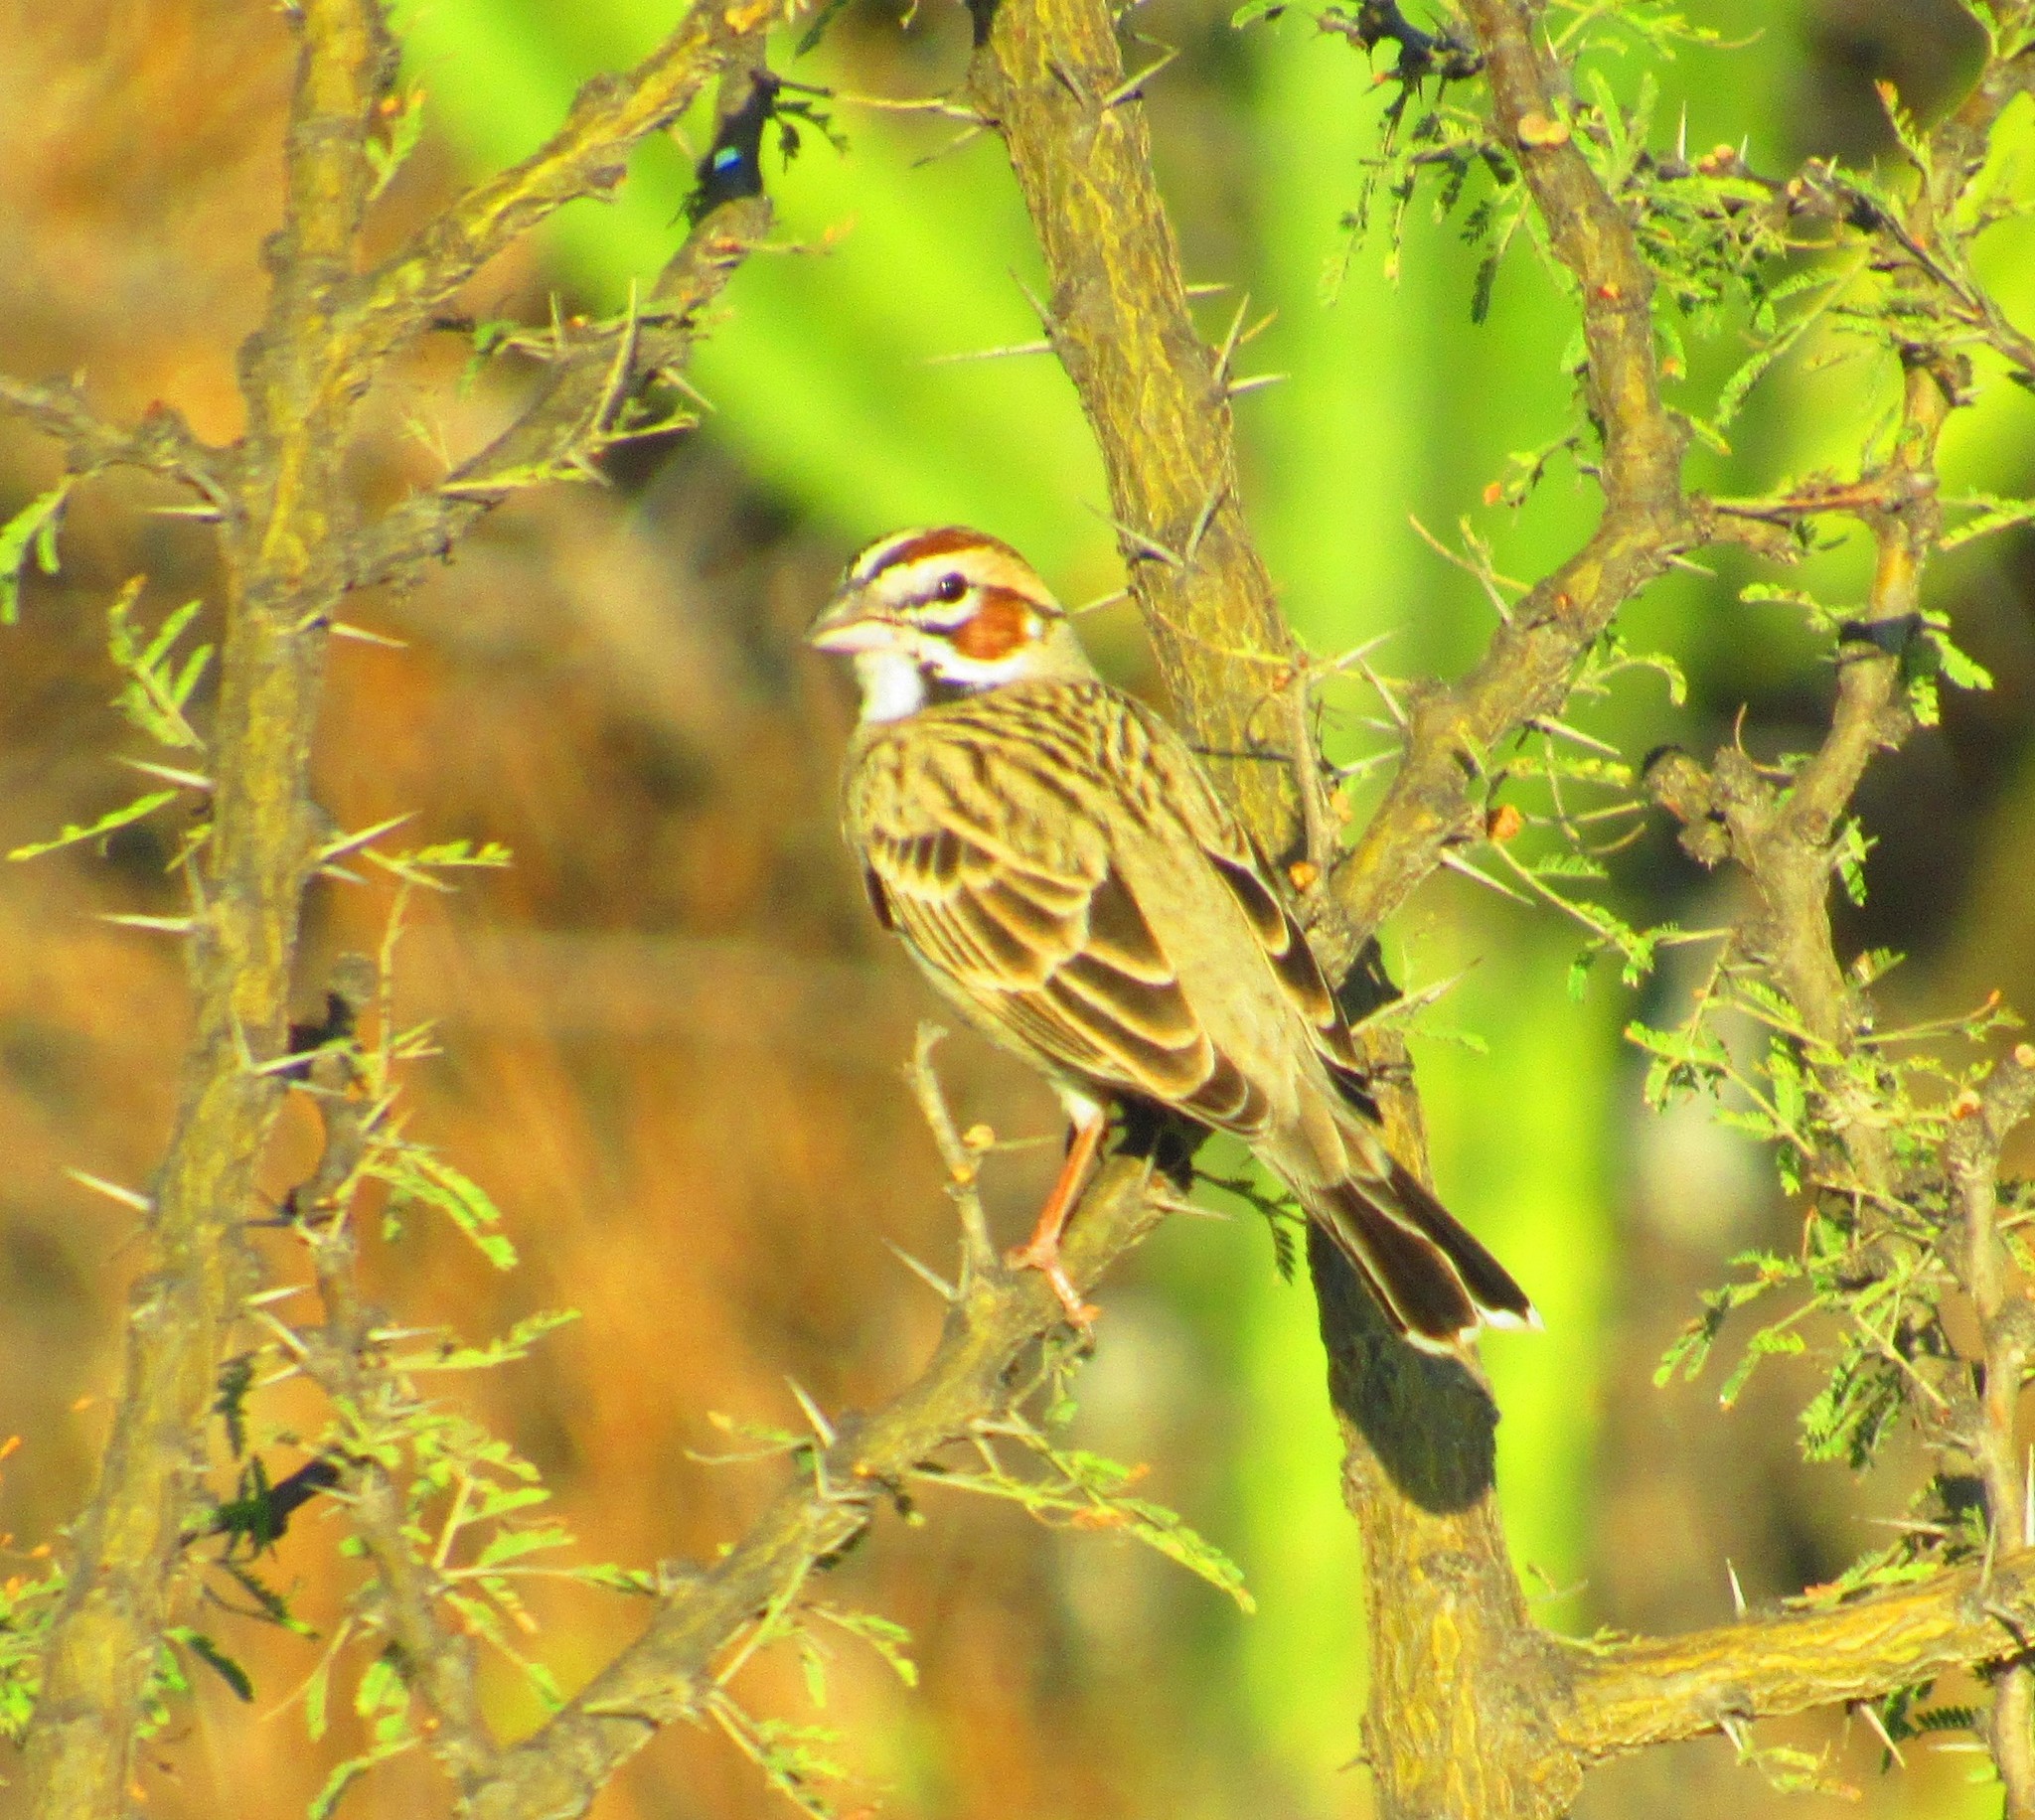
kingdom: Animalia
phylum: Chordata
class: Aves
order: Passeriformes
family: Passerellidae
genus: Chondestes
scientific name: Chondestes grammacus
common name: Lark sparrow
